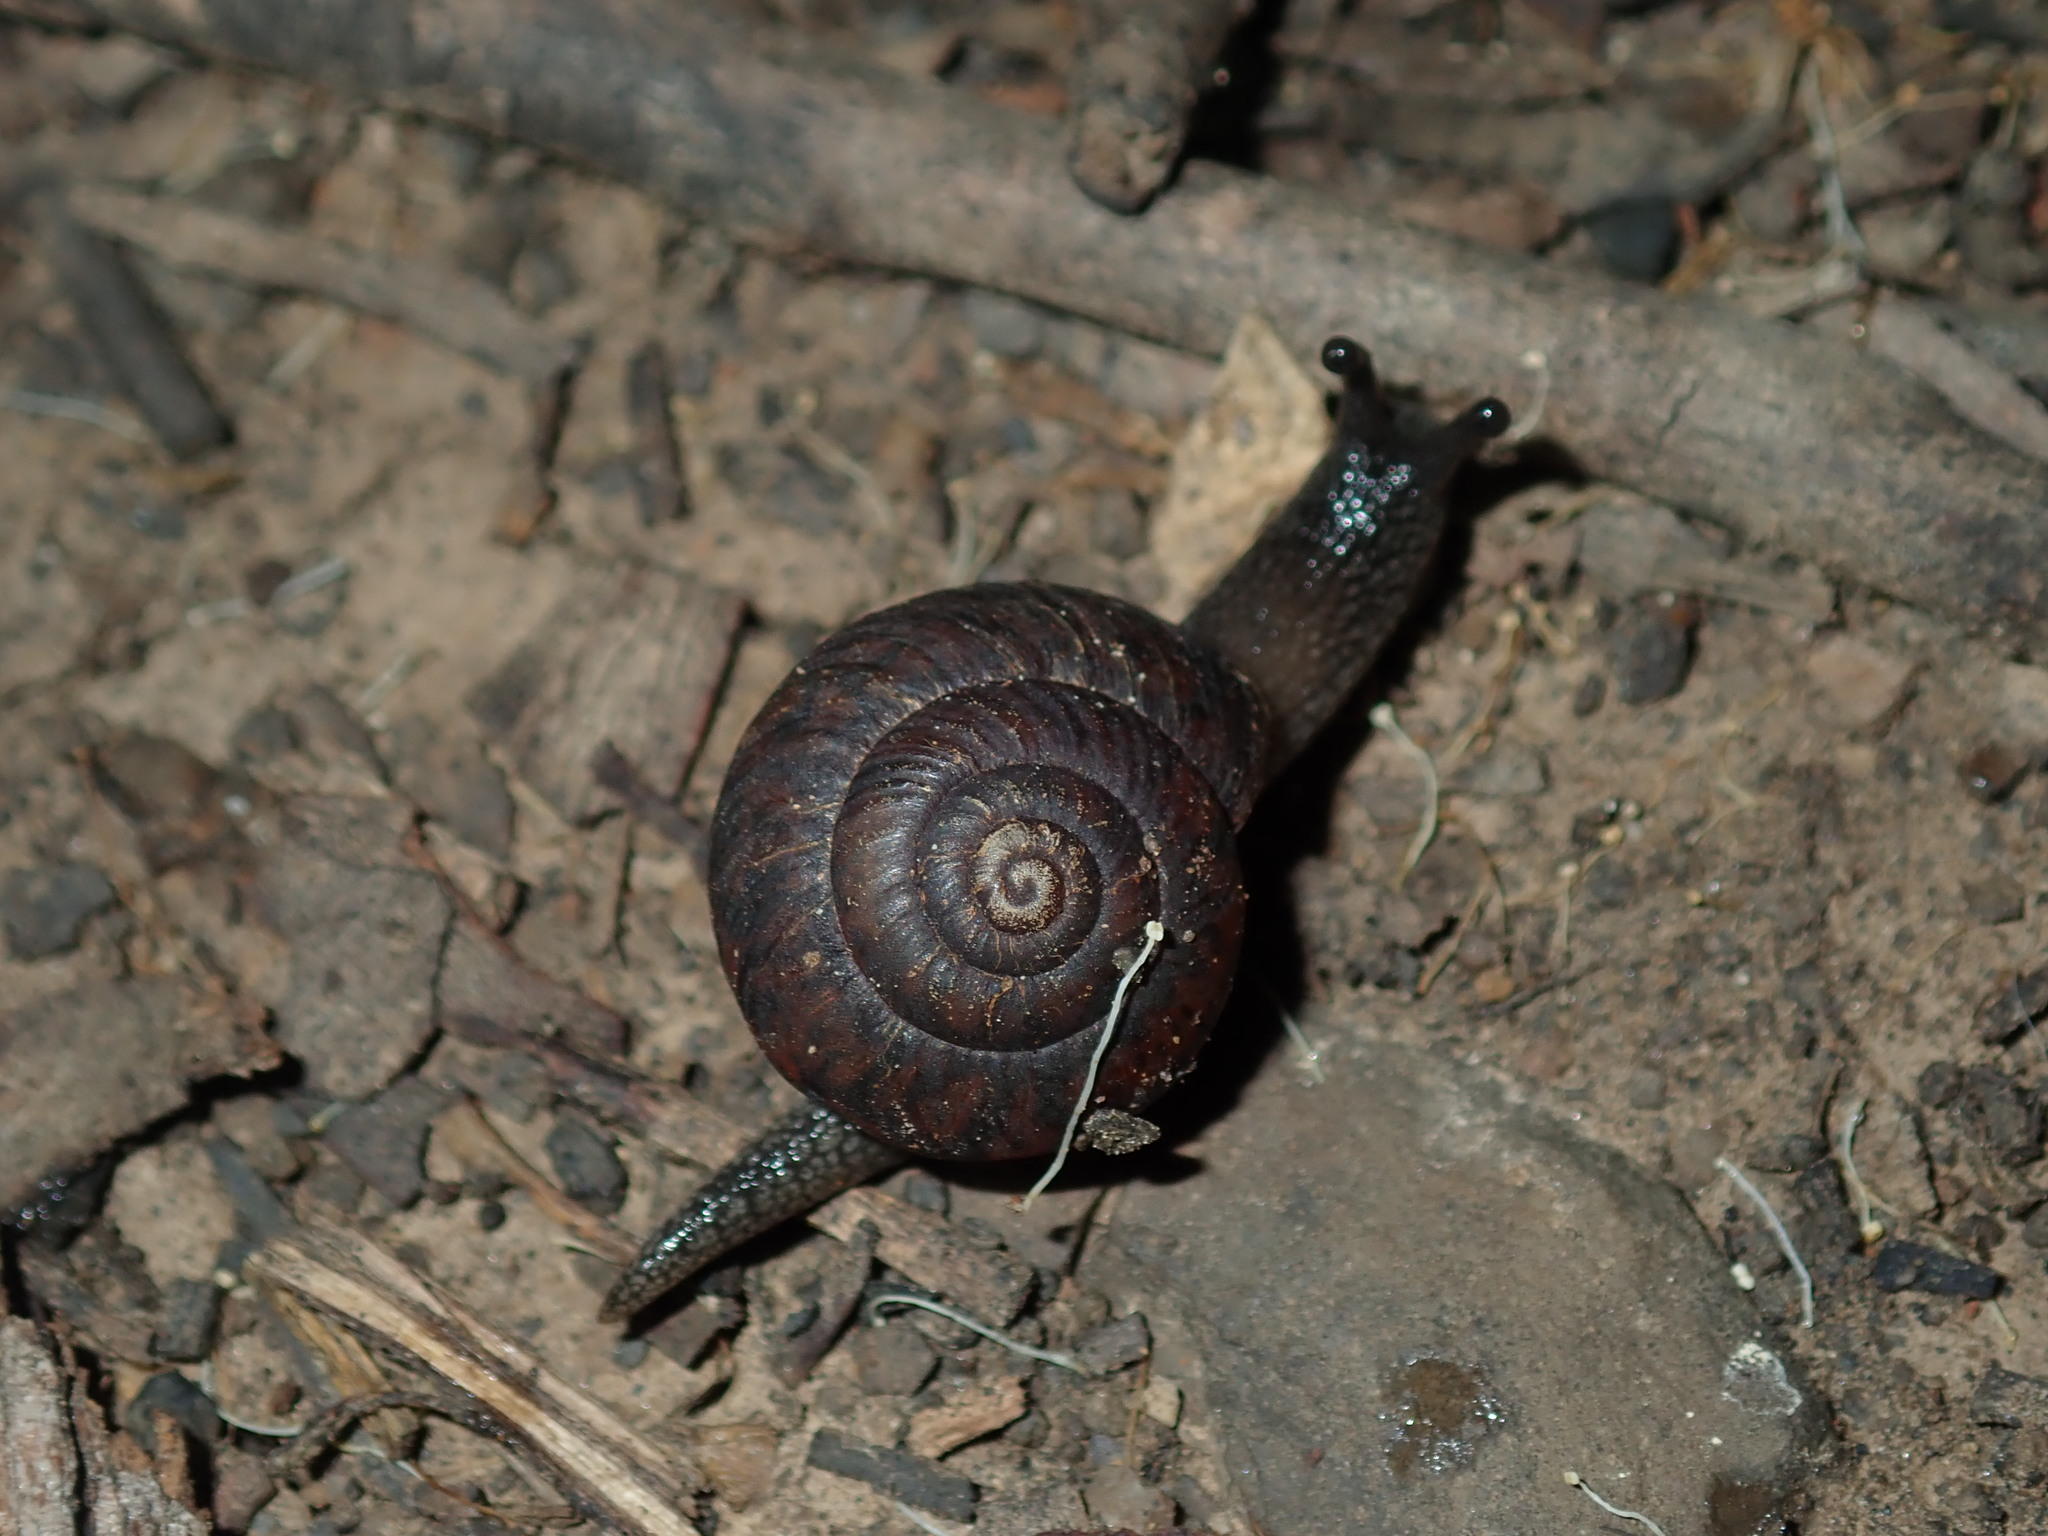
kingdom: Animalia
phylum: Mollusca
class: Gastropoda
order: Stylommatophora
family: Camaenidae
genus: Sauroconcha
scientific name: Sauroconcha sheai
